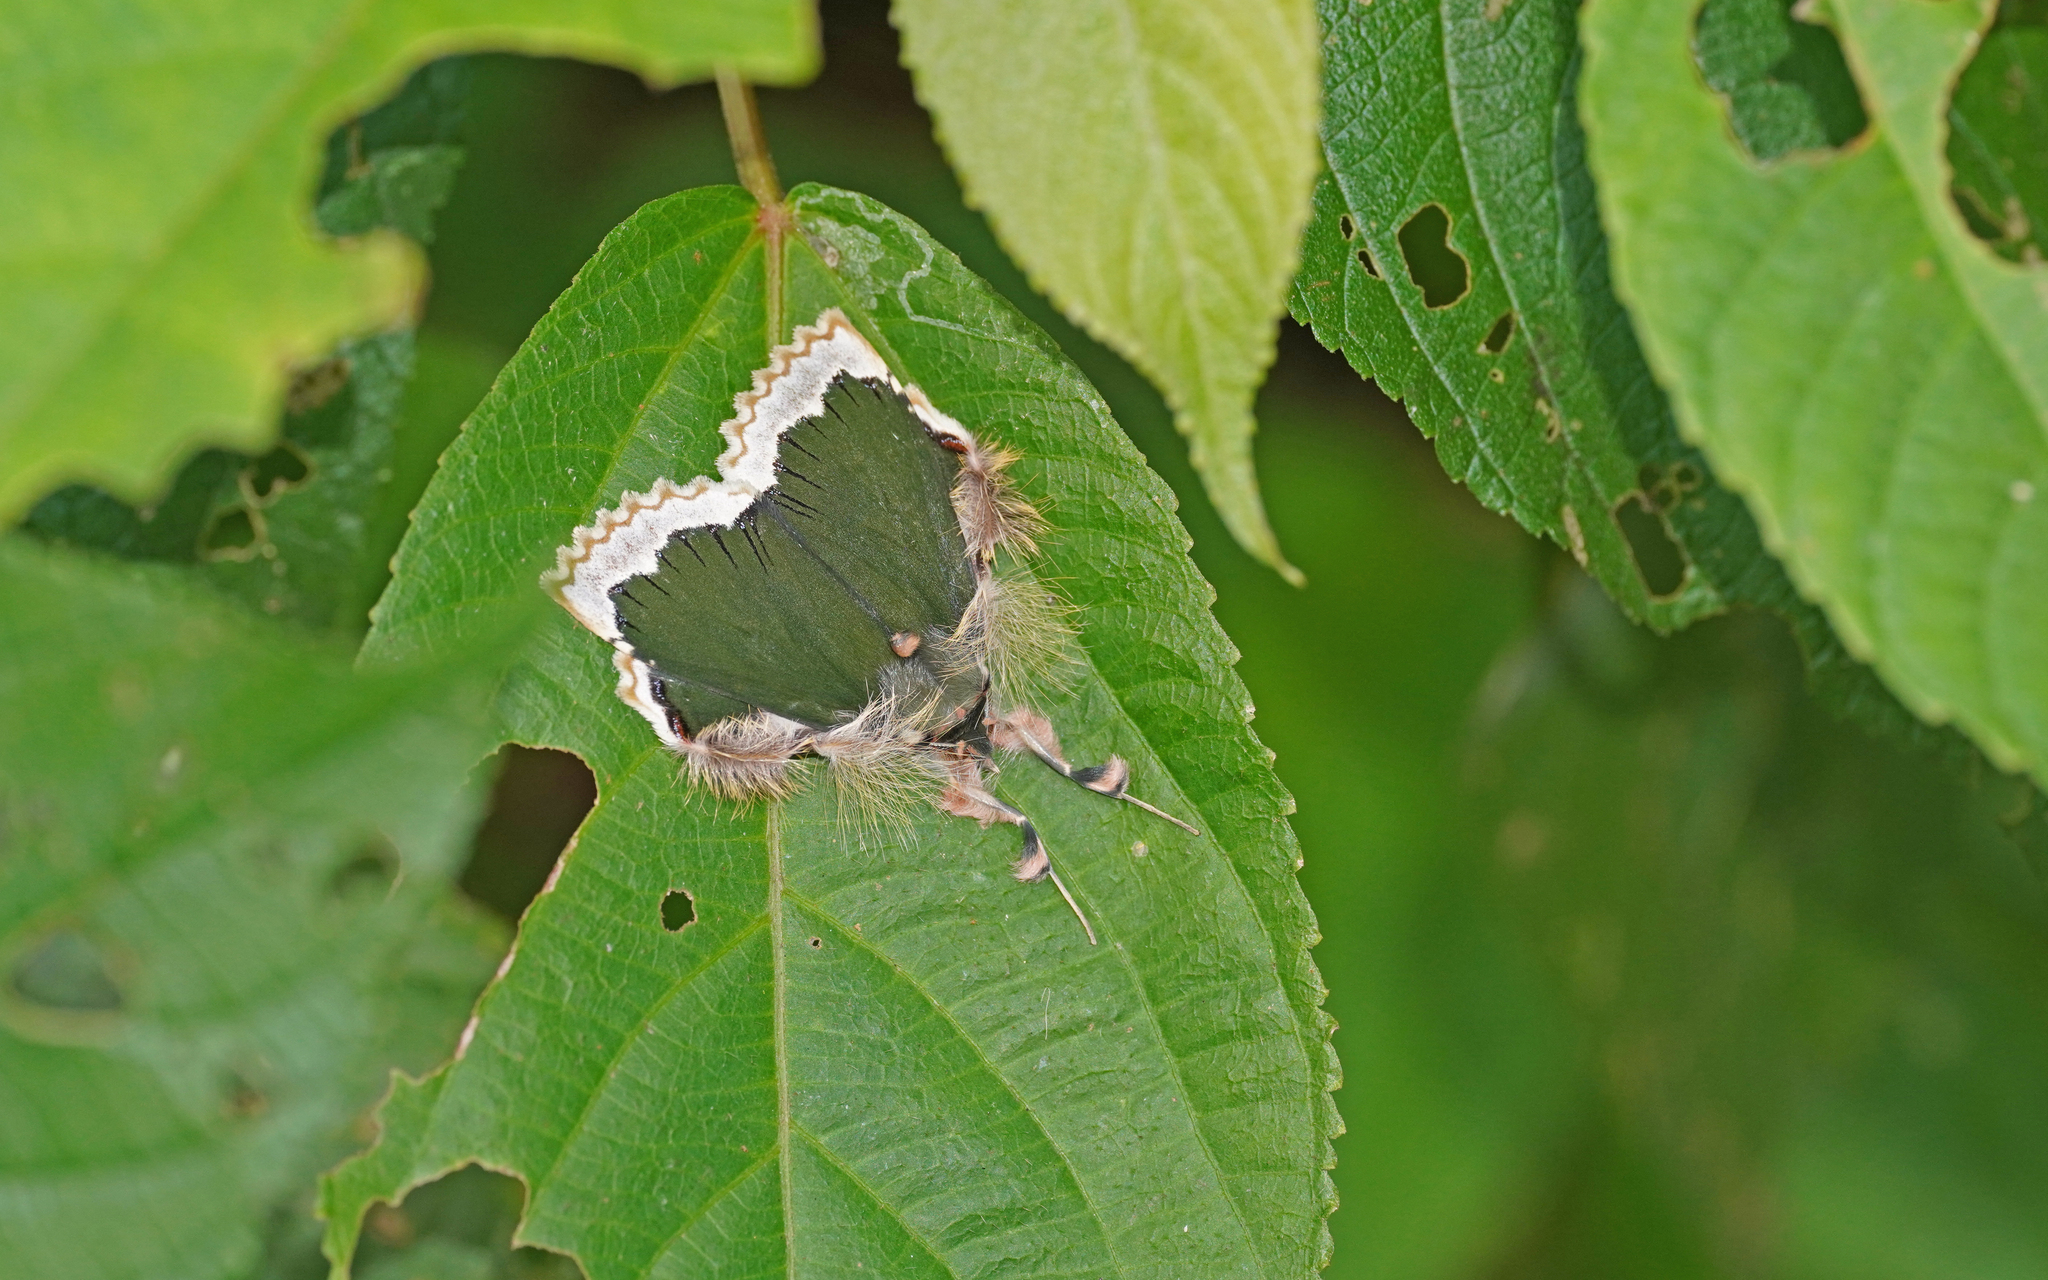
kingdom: Animalia
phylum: Arthropoda
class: Insecta
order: Lepidoptera
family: Erebidae
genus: Ceroctena
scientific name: Ceroctena amynta
